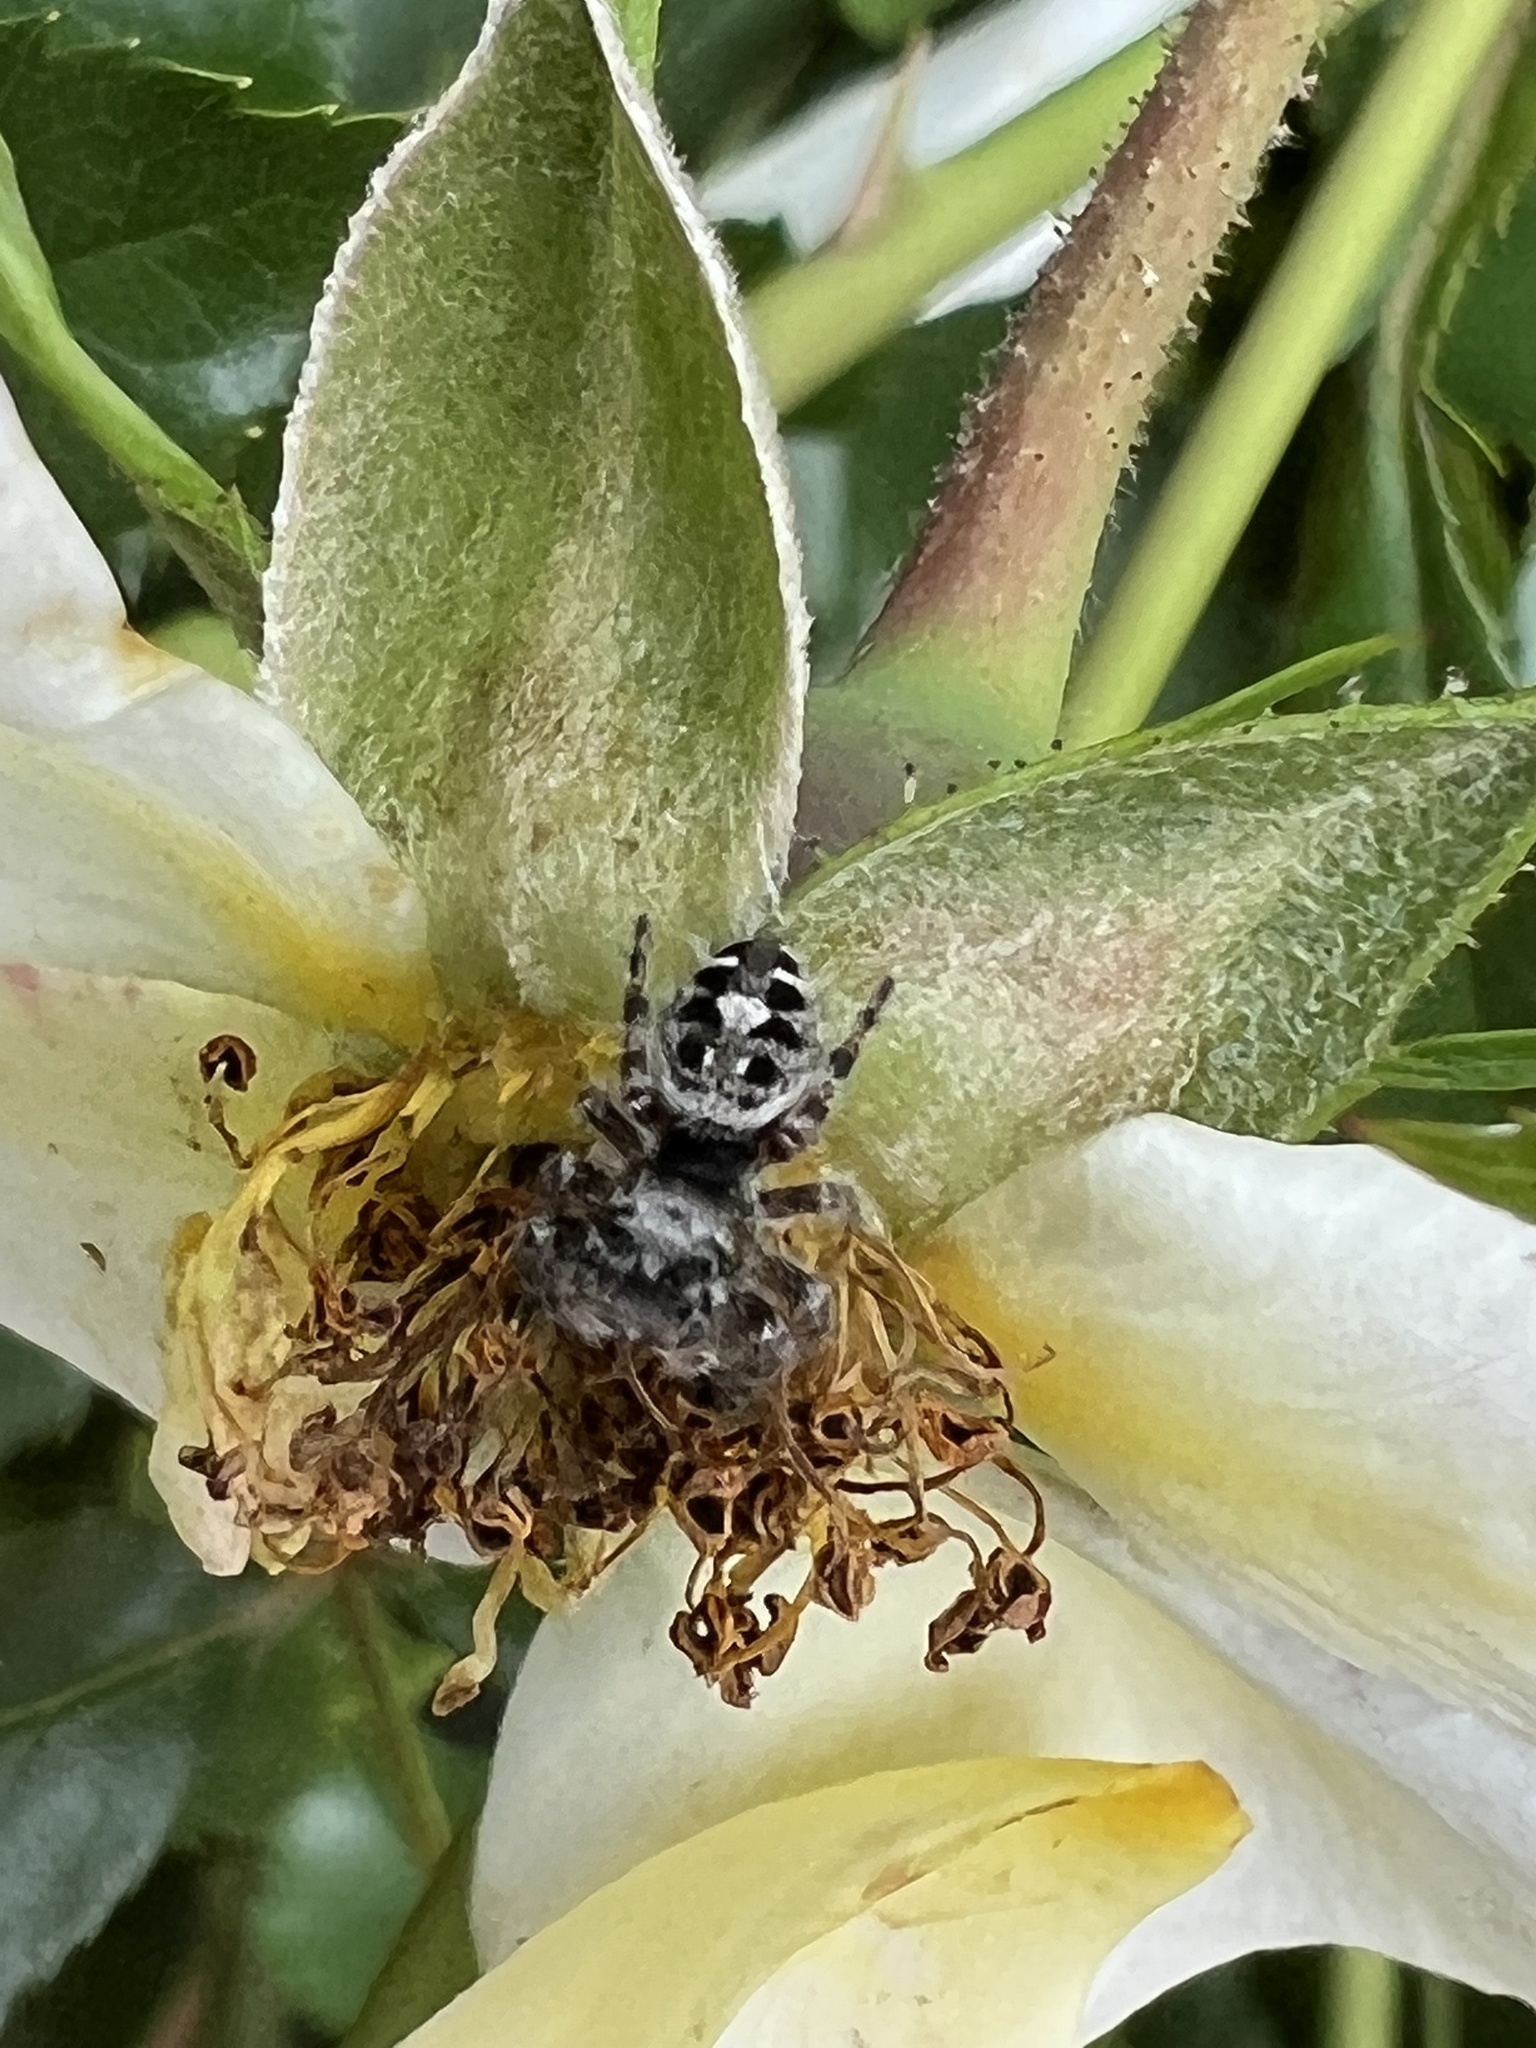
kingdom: Animalia
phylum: Arthropoda
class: Arachnida
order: Araneae
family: Salticidae
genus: Phidippus
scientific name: Phidippus putnami
